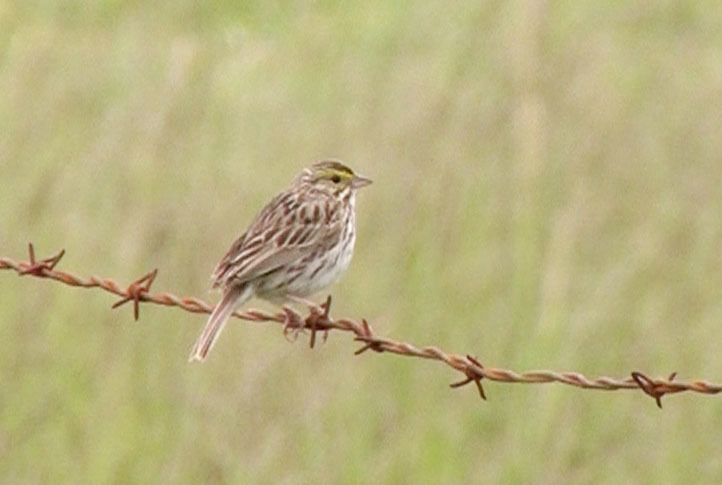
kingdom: Animalia
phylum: Chordata
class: Aves
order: Passeriformes
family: Passerellidae
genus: Passerculus
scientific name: Passerculus sandwichensis
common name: Savannah sparrow
